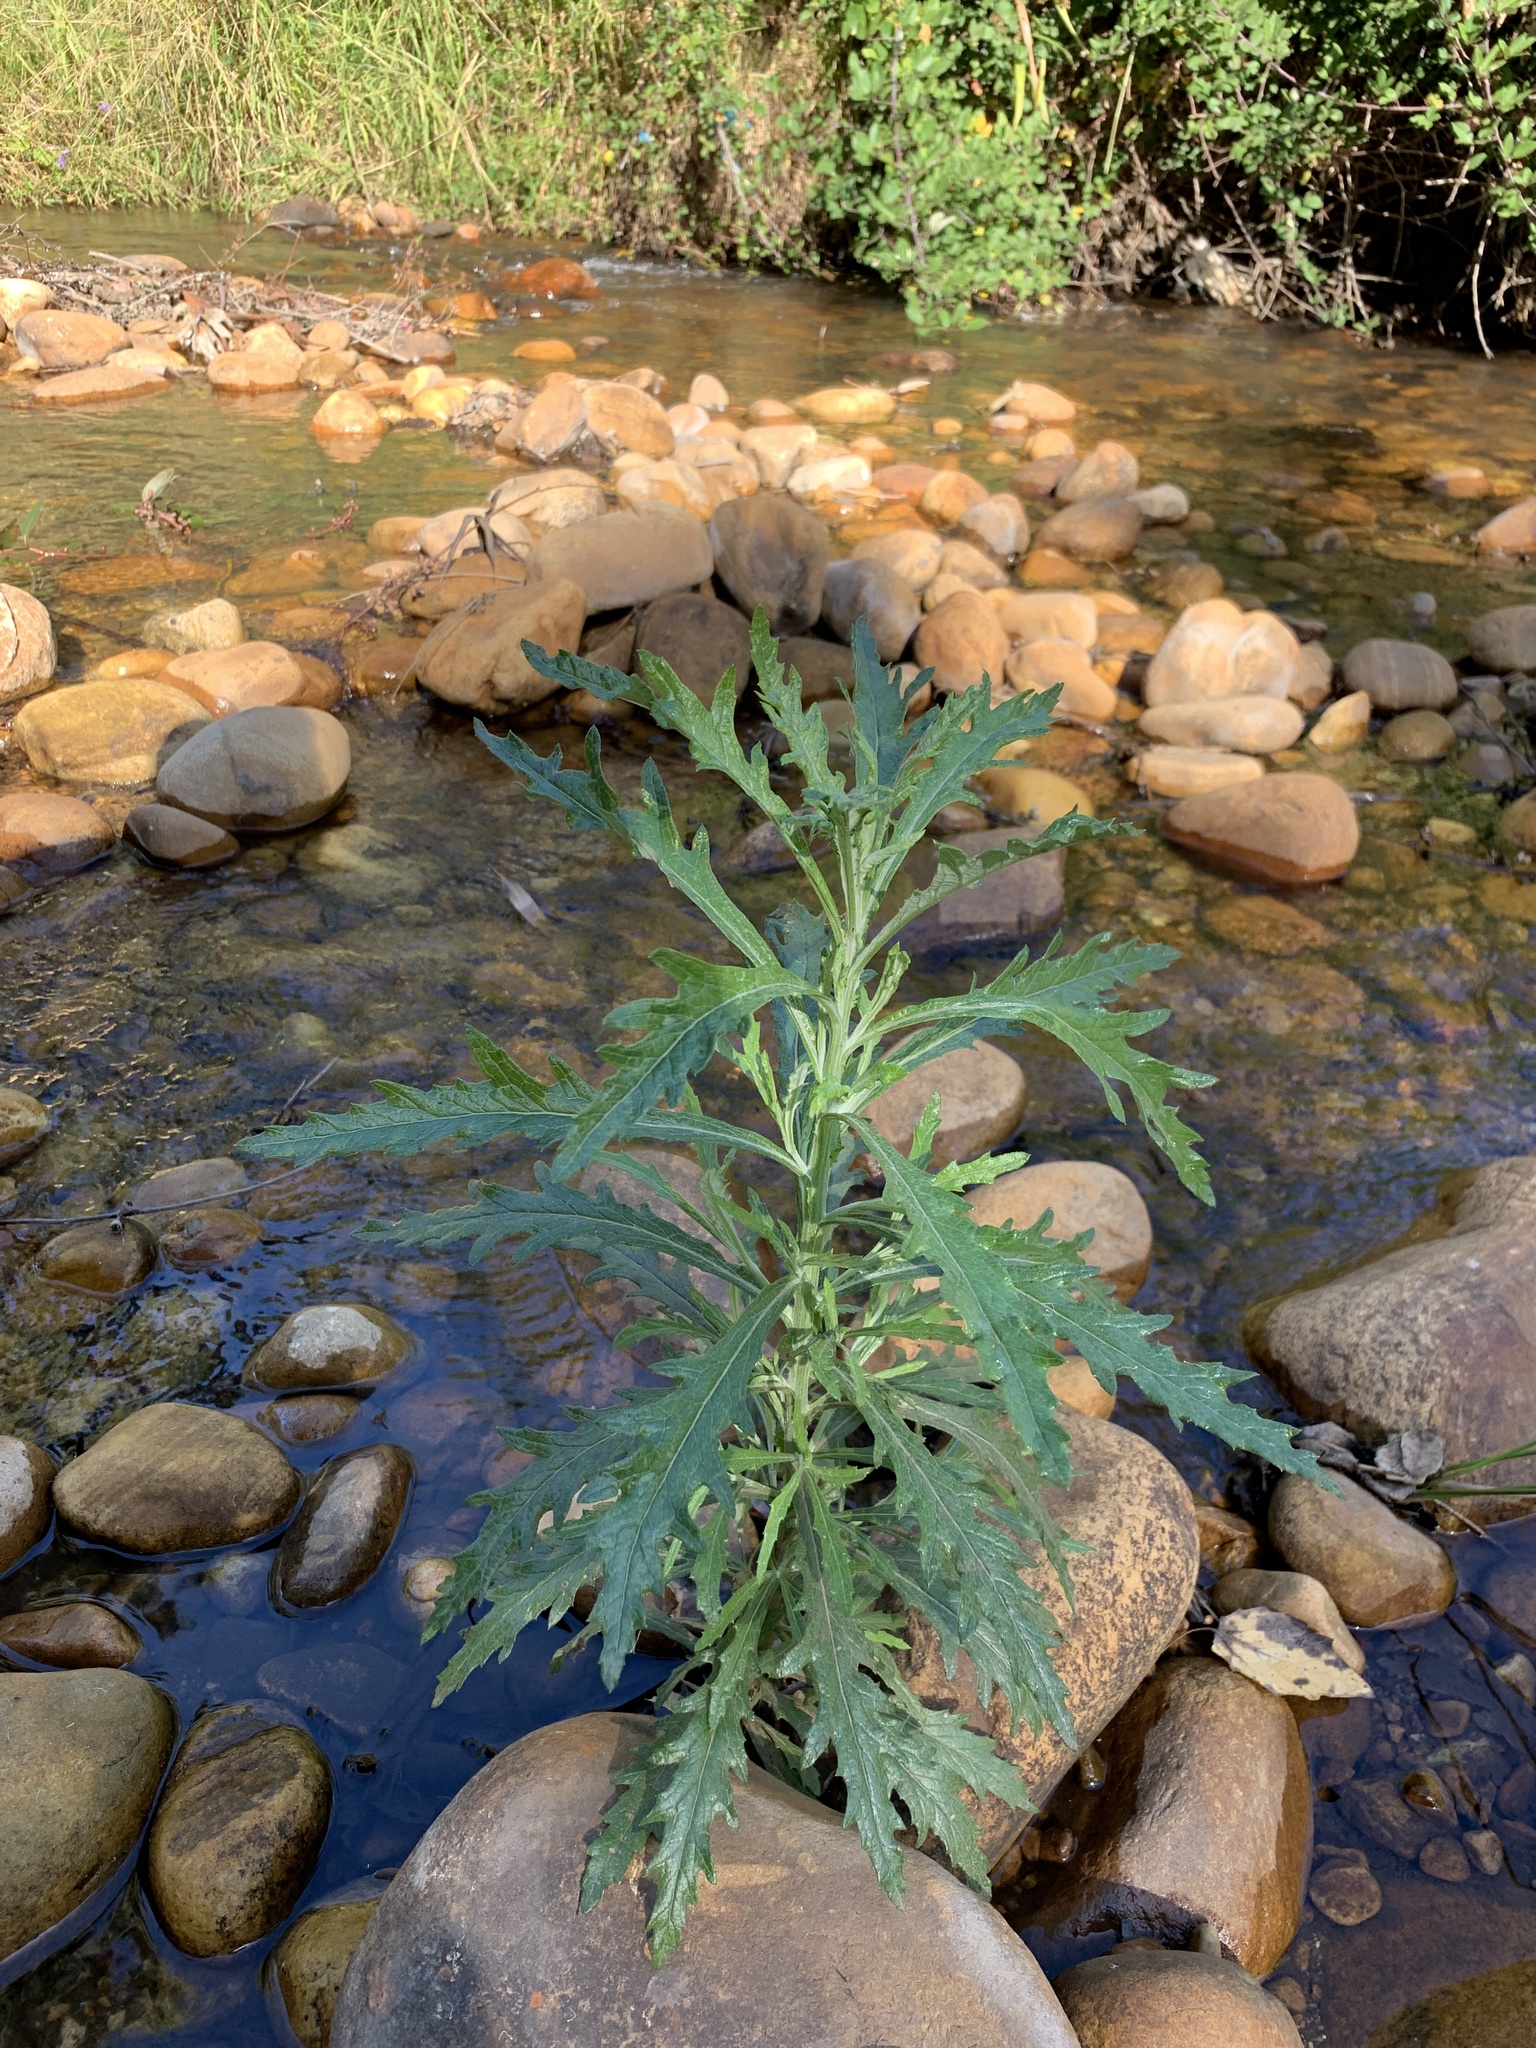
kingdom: Plantae
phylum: Tracheophyta
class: Magnoliopsida
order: Asterales
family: Asteraceae
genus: Senecio
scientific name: Senecio pterophorus
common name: Shoddy ragwort
